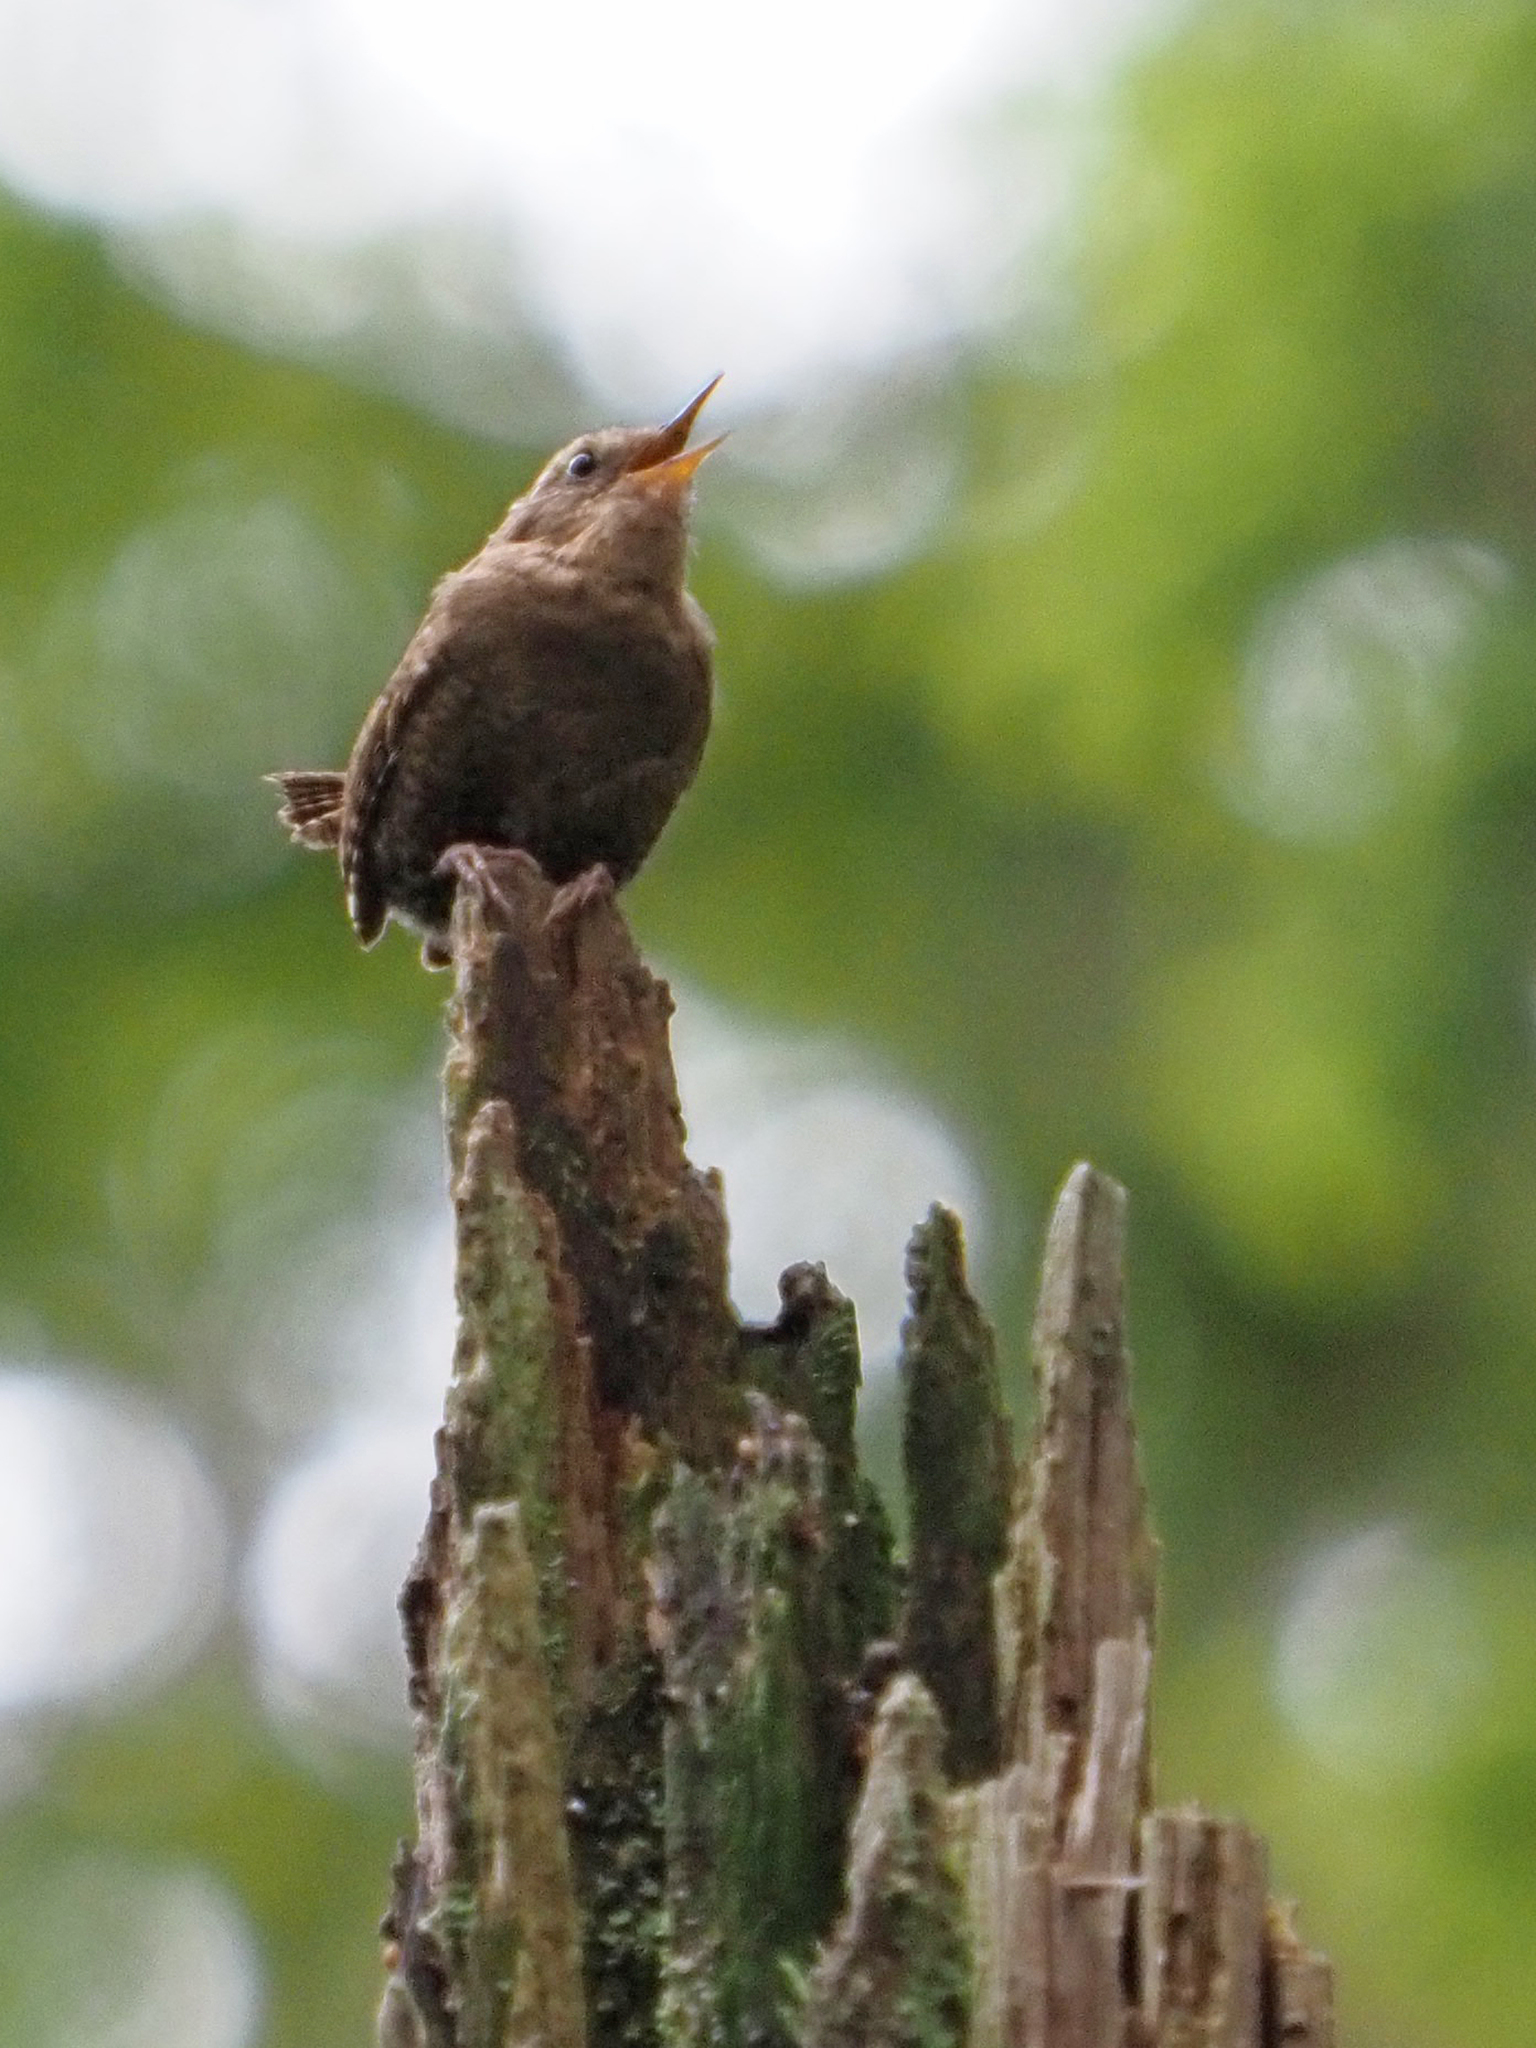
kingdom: Animalia
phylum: Chordata
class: Aves
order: Passeriformes
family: Troglodytidae
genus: Troglodytes
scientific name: Troglodytes pacificus
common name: Pacific wren
